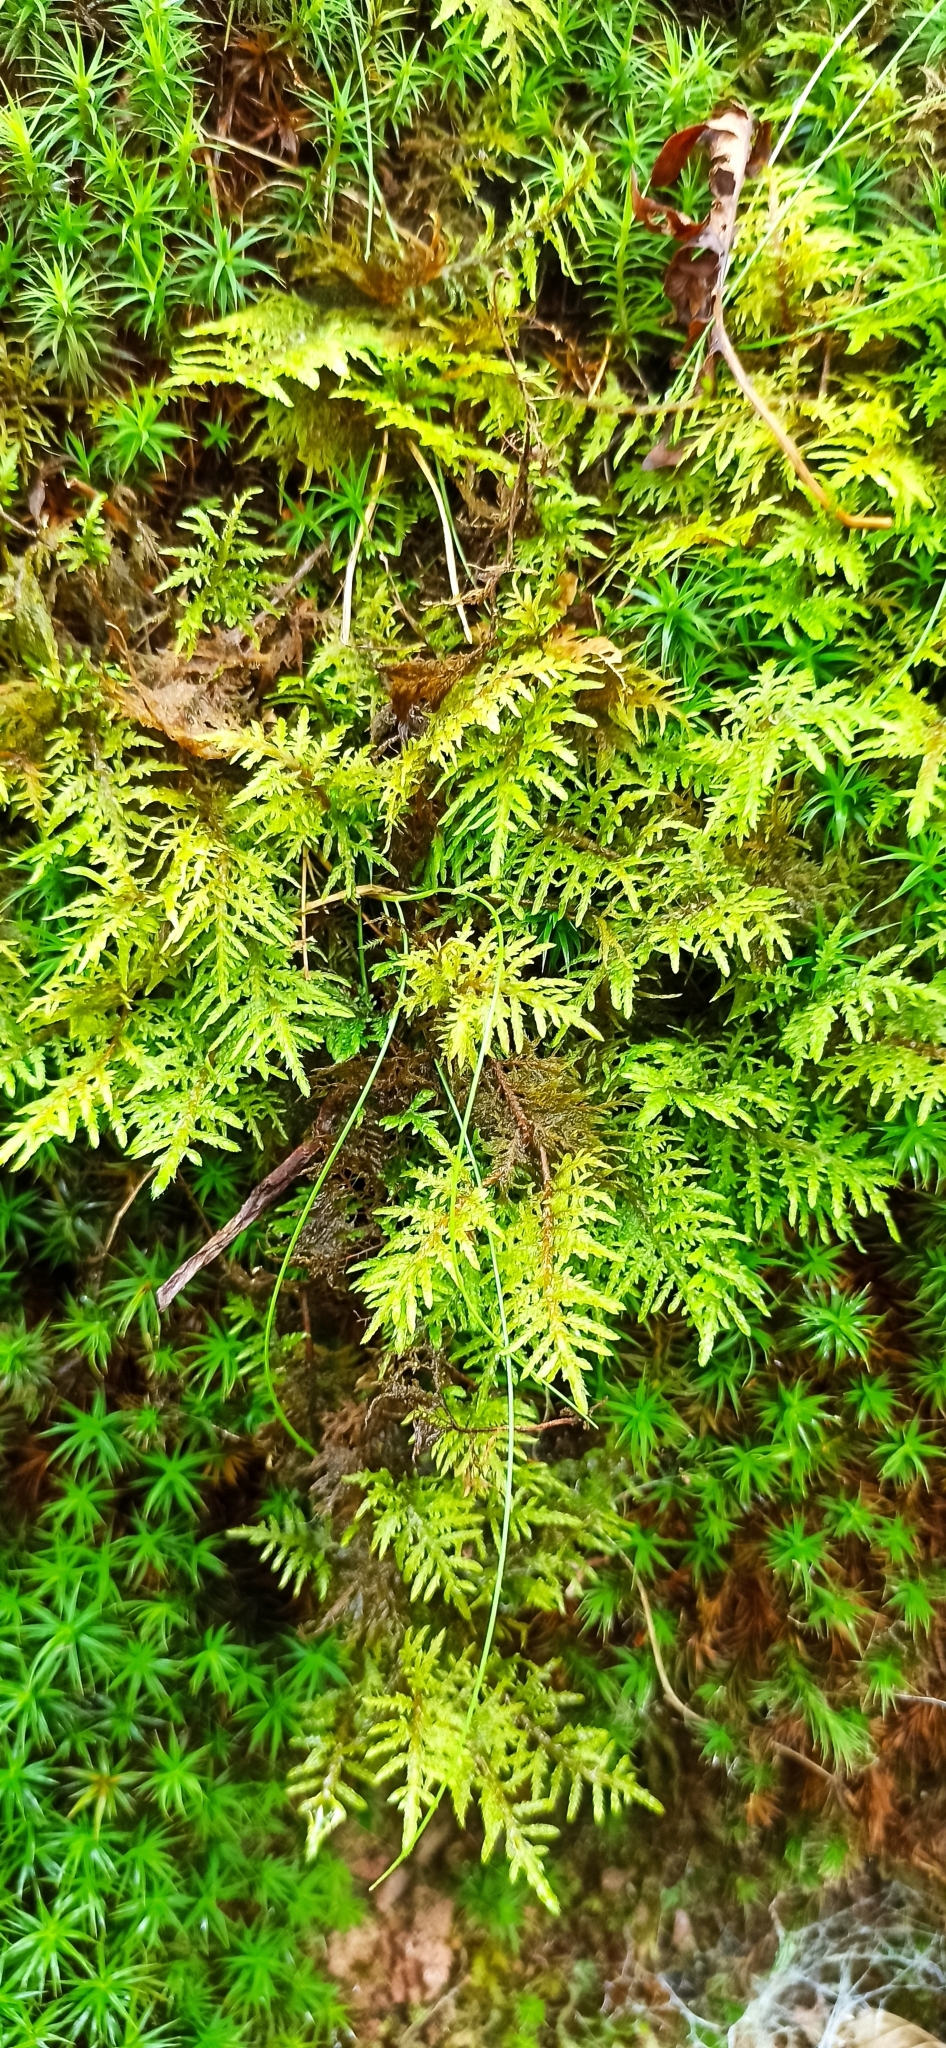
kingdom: Plantae
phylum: Bryophyta
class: Bryopsida
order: Hypnales
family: Hylocomiaceae
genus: Hylocomium
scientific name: Hylocomium splendens
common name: Stairstep moss
